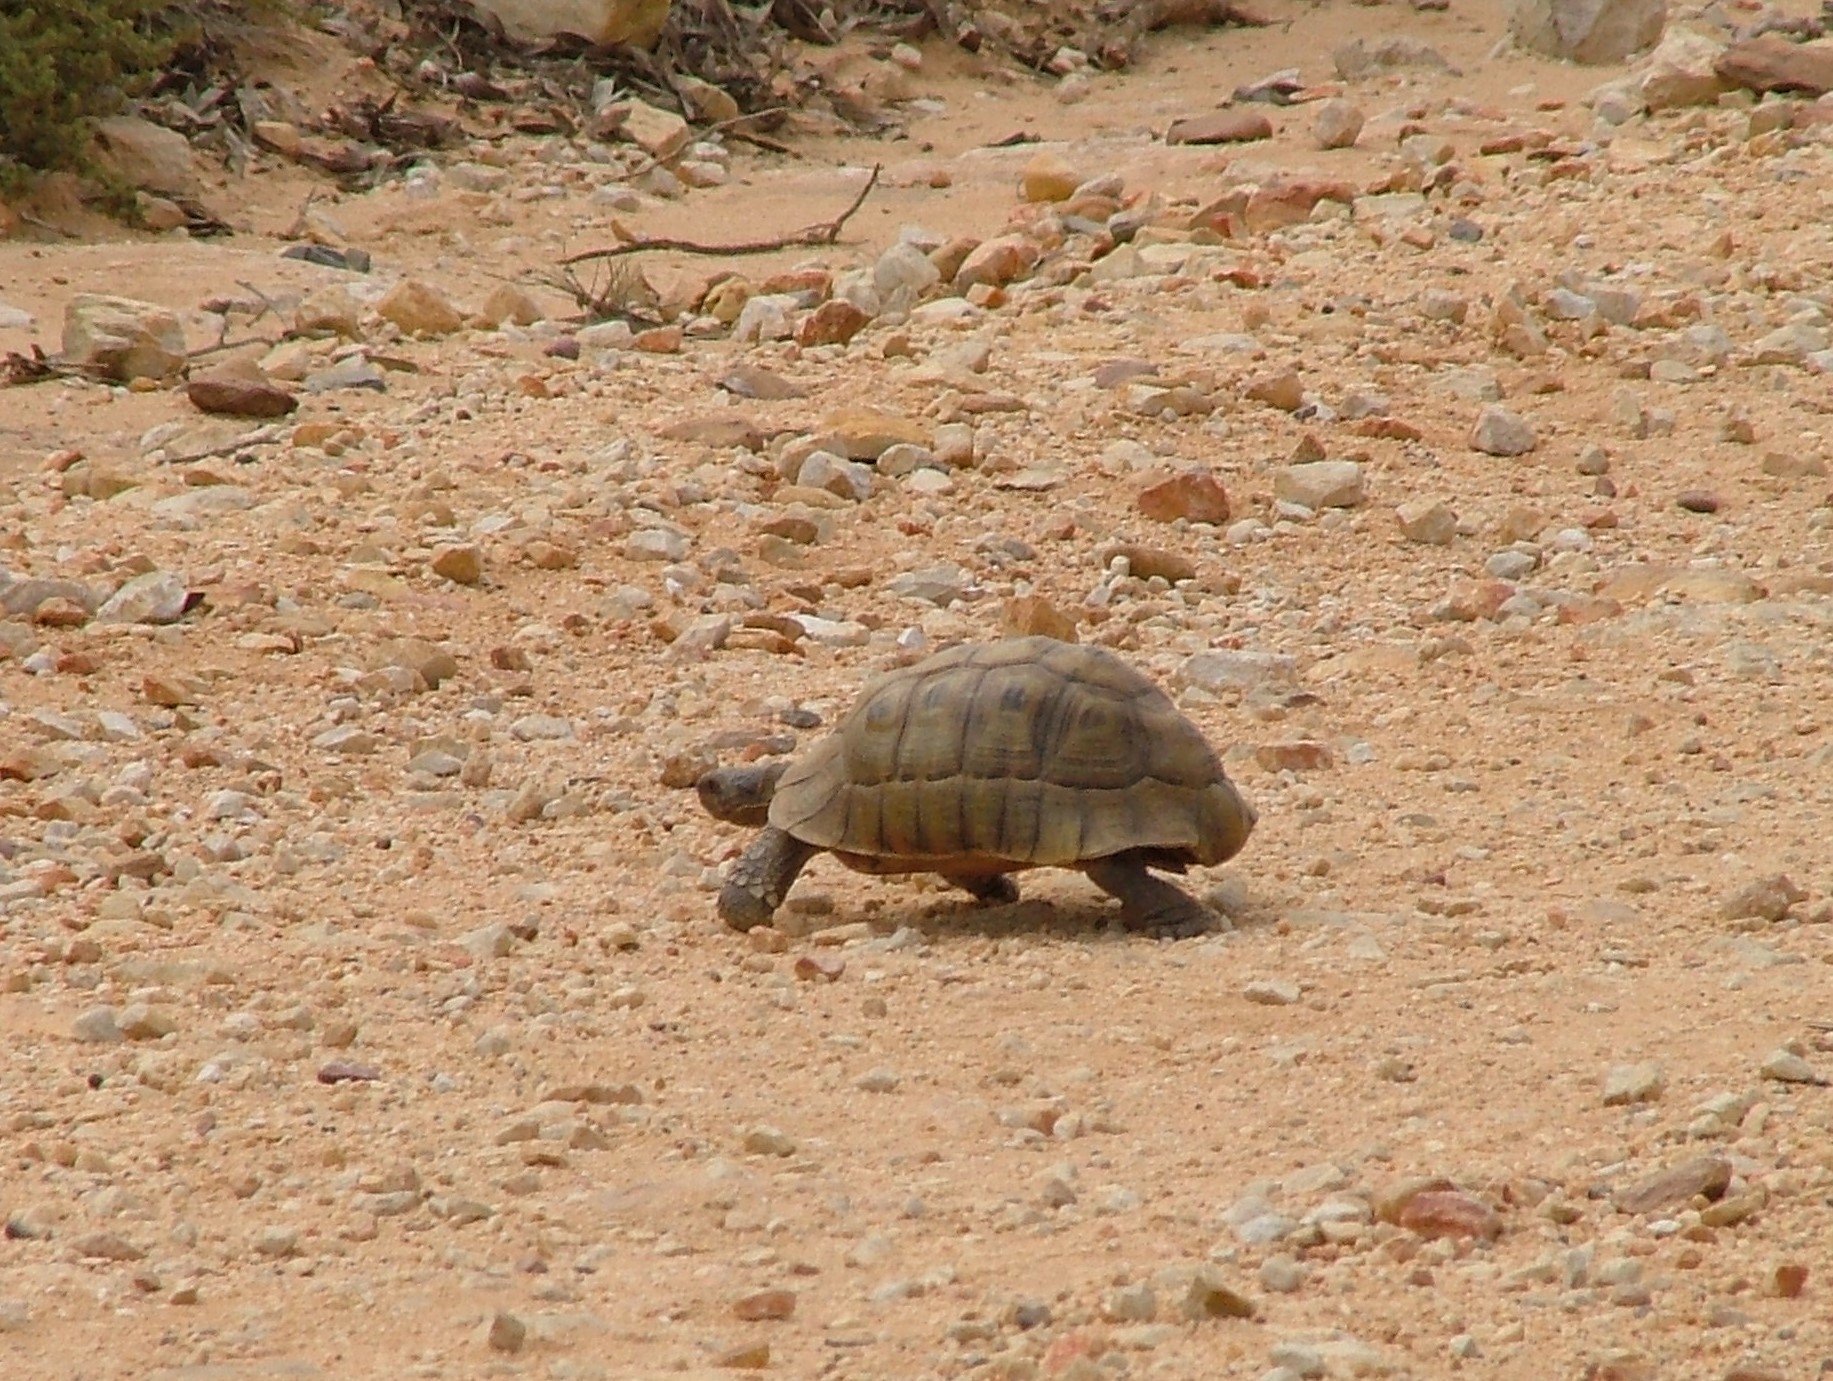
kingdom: Animalia
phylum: Chordata
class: Testudines
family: Testudinidae
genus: Chersina
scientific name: Chersina angulata
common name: South african bowsprit tortoise
